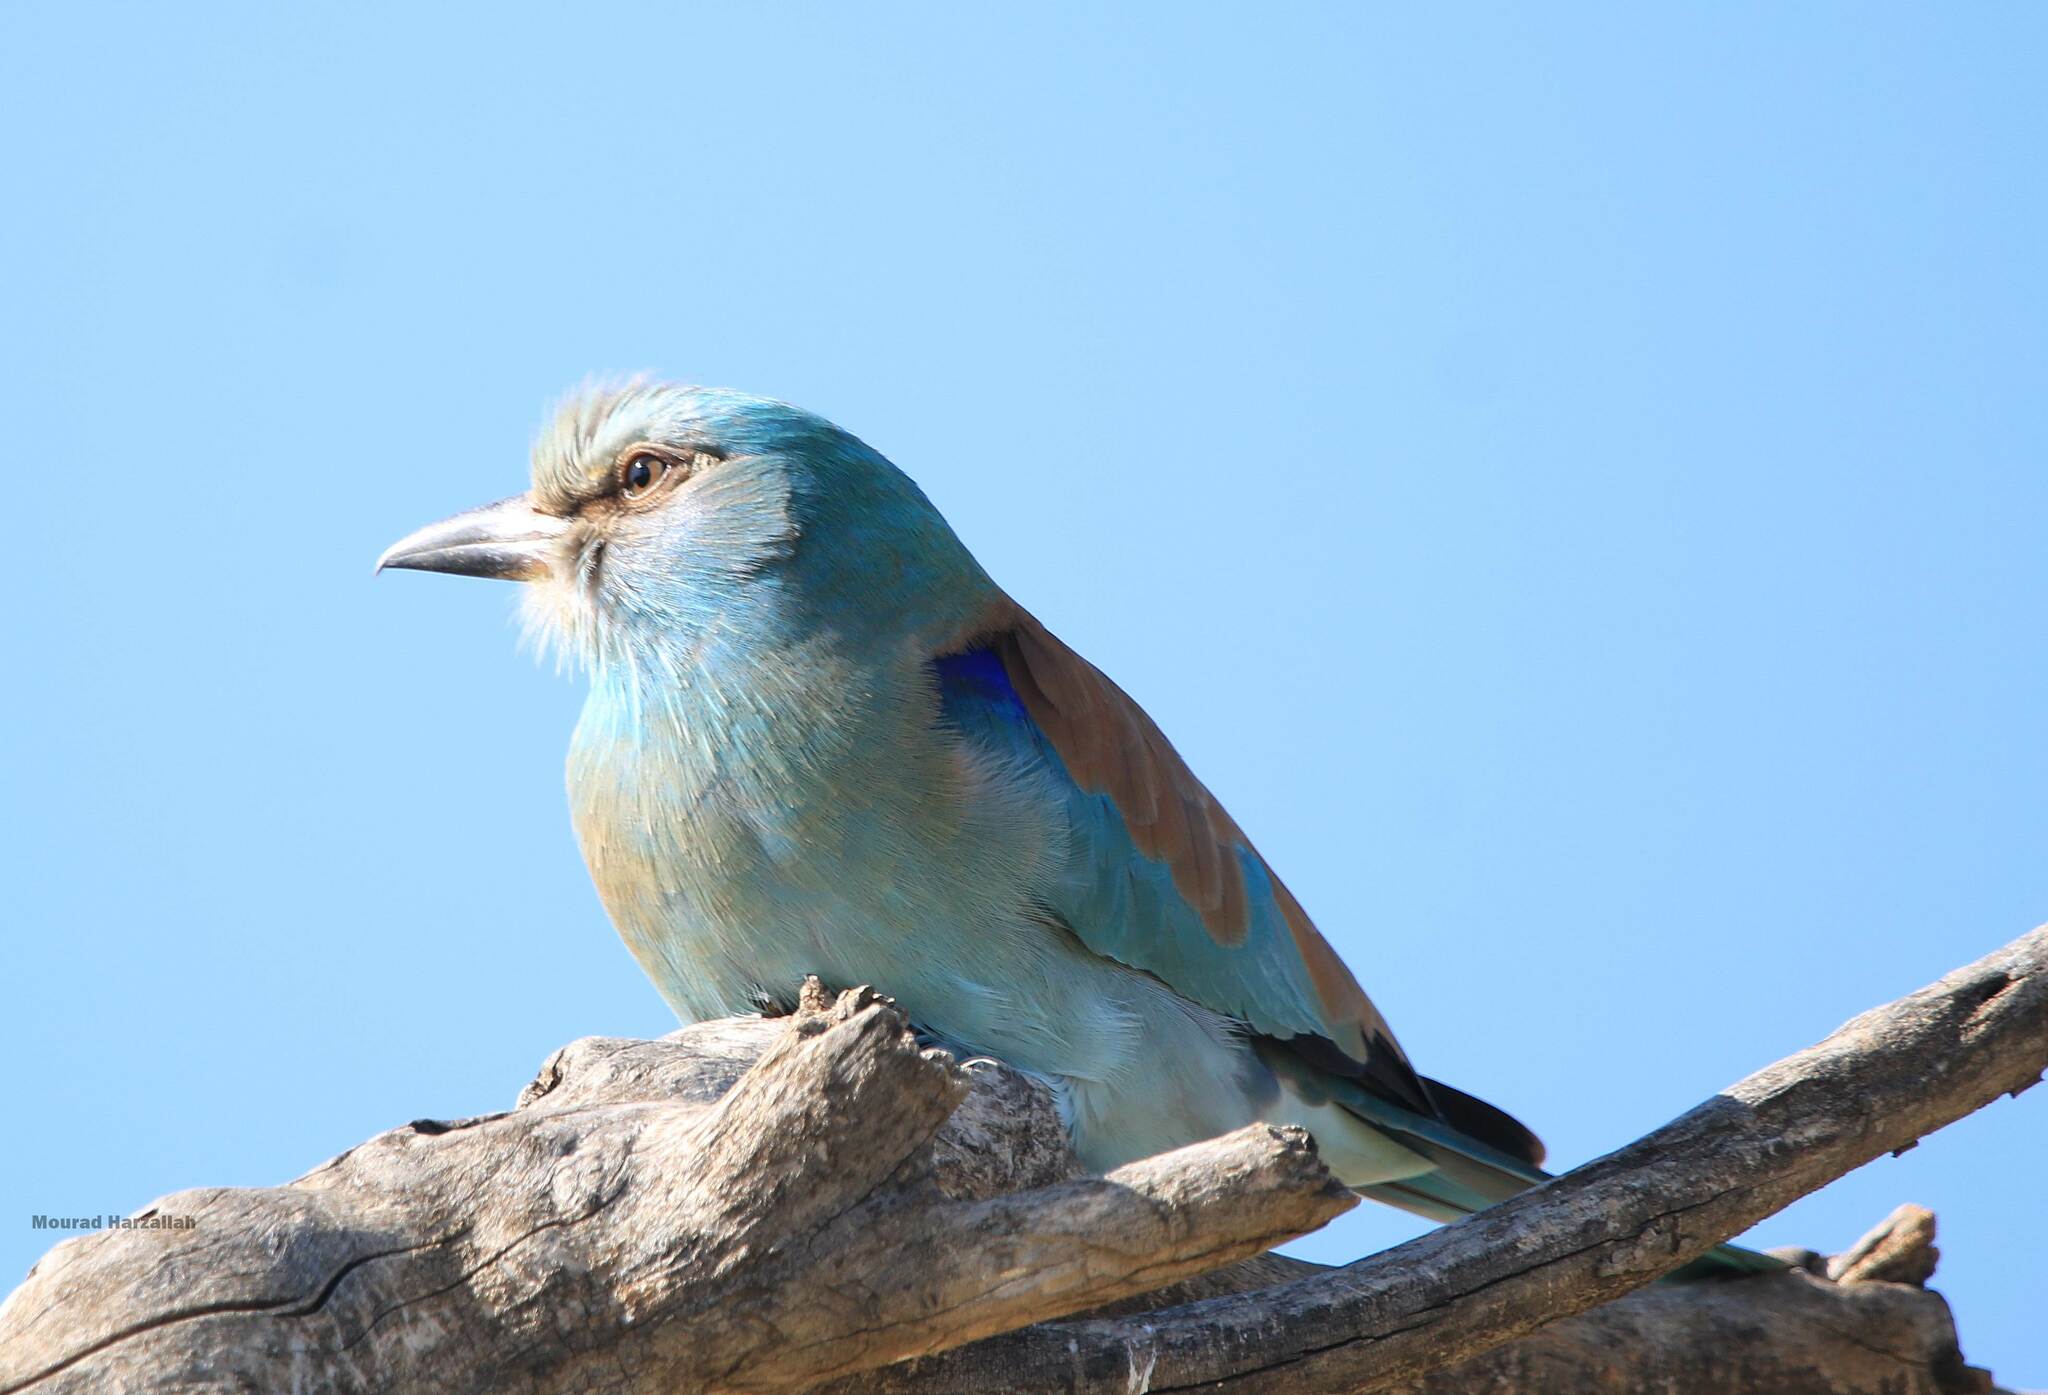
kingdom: Animalia
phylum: Chordata
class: Aves
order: Coraciiformes
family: Coraciidae
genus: Coracias
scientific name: Coracias garrulus
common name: European roller
